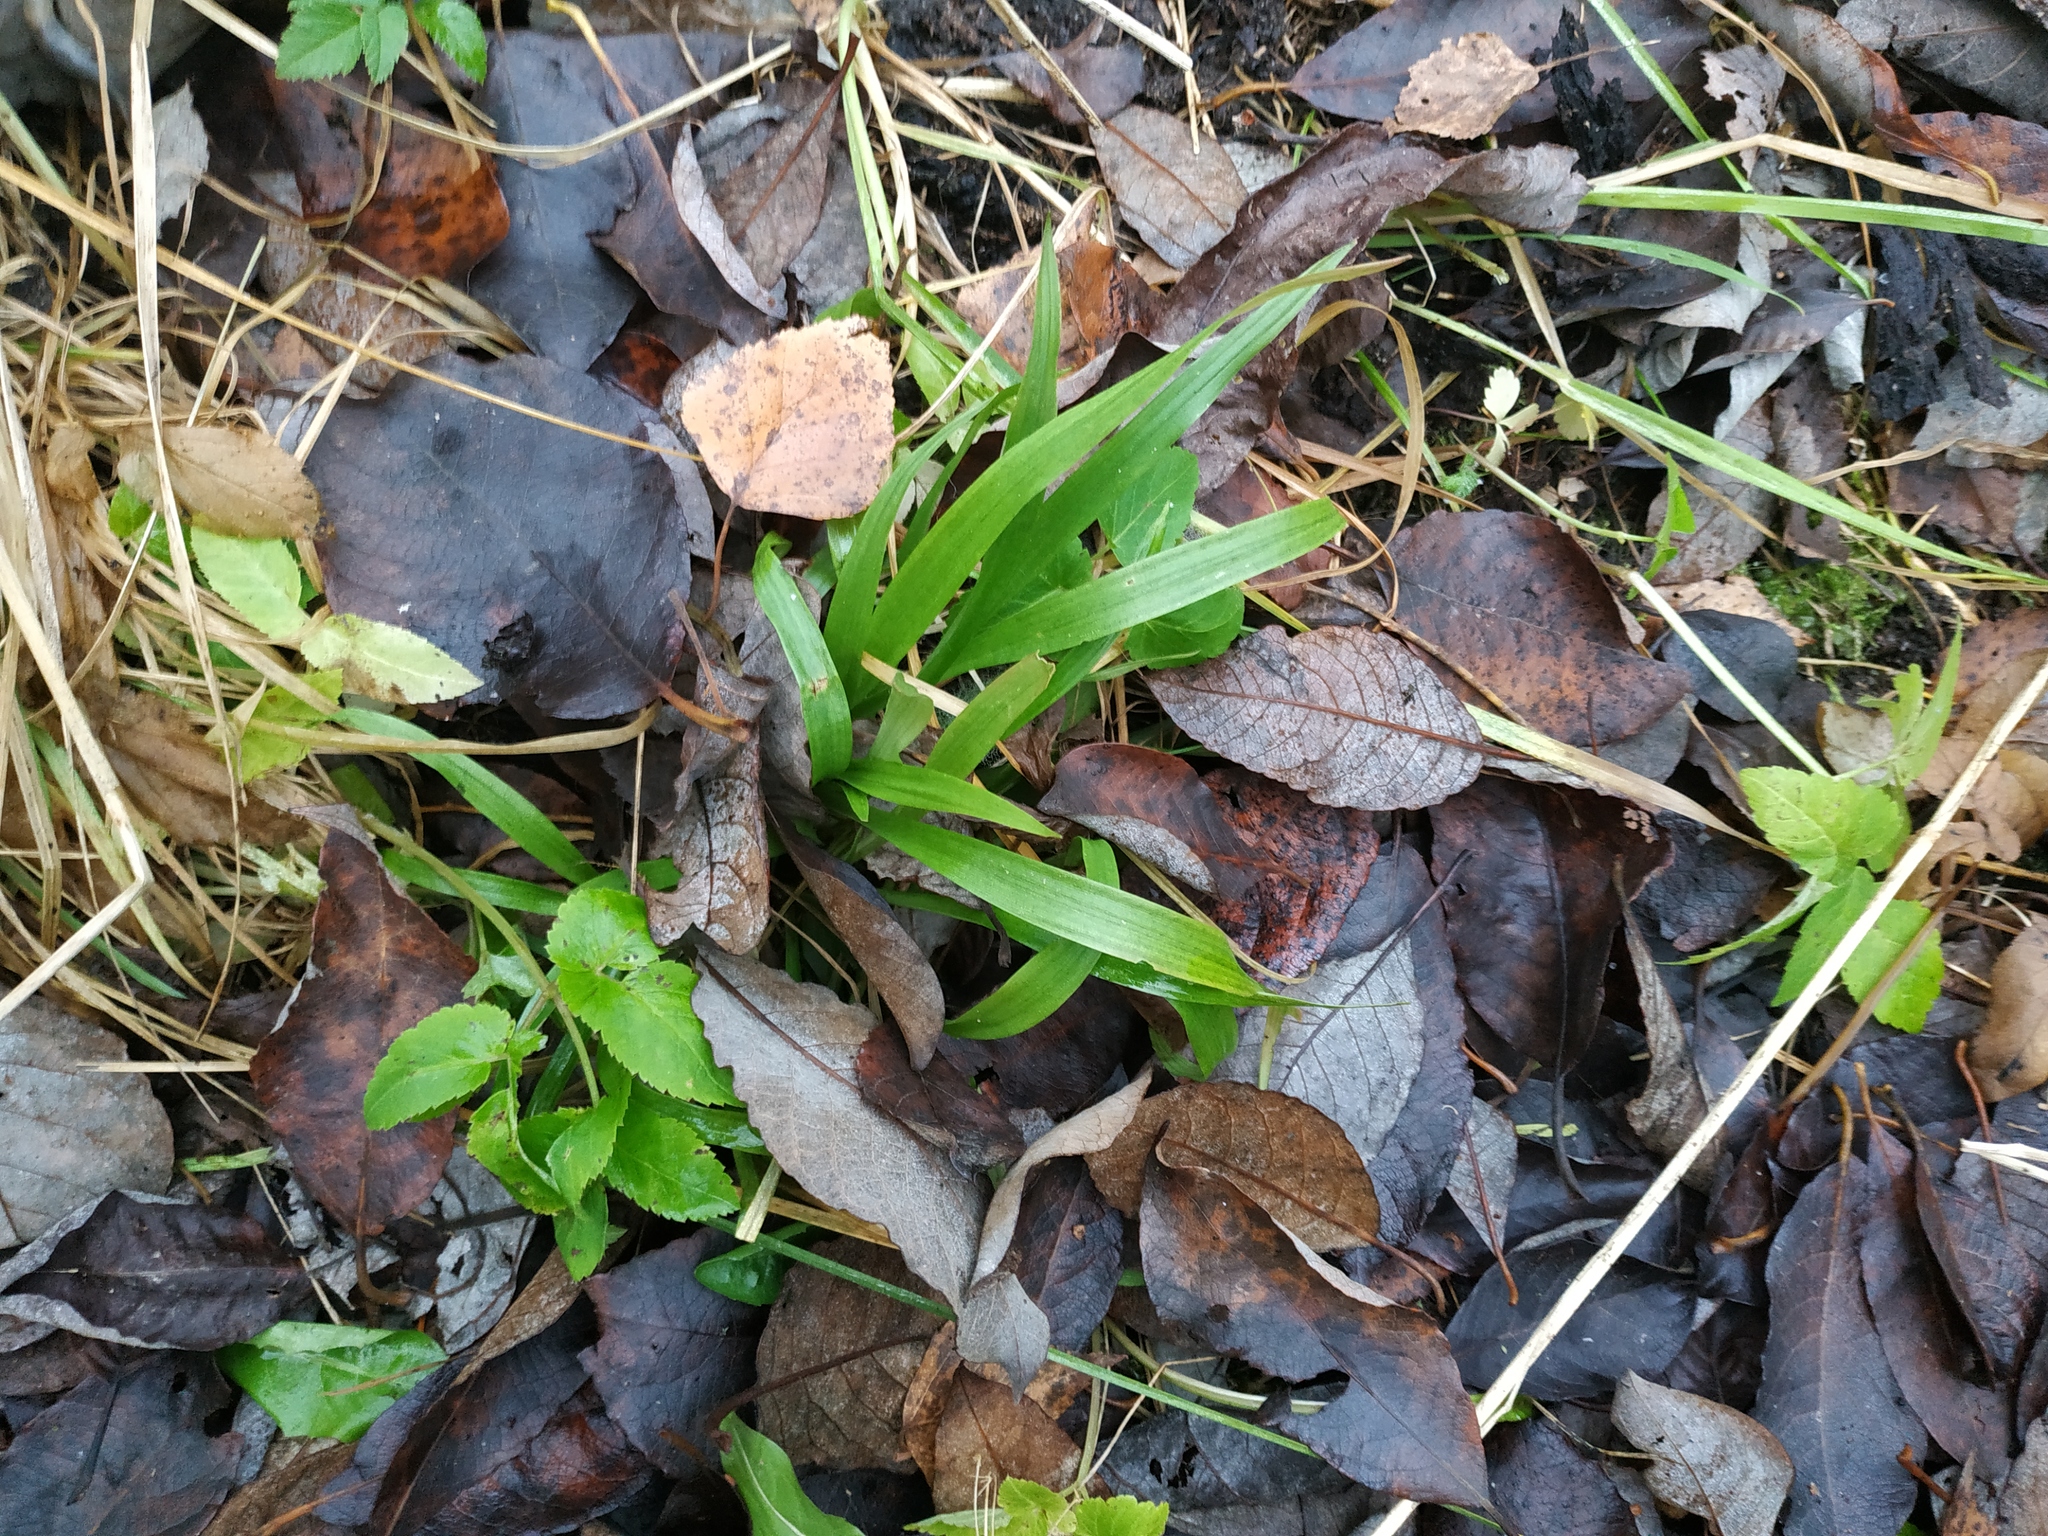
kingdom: Plantae
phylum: Tracheophyta
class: Liliopsida
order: Poales
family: Juncaceae
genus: Luzula
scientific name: Luzula pilosa
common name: Hairy wood-rush
